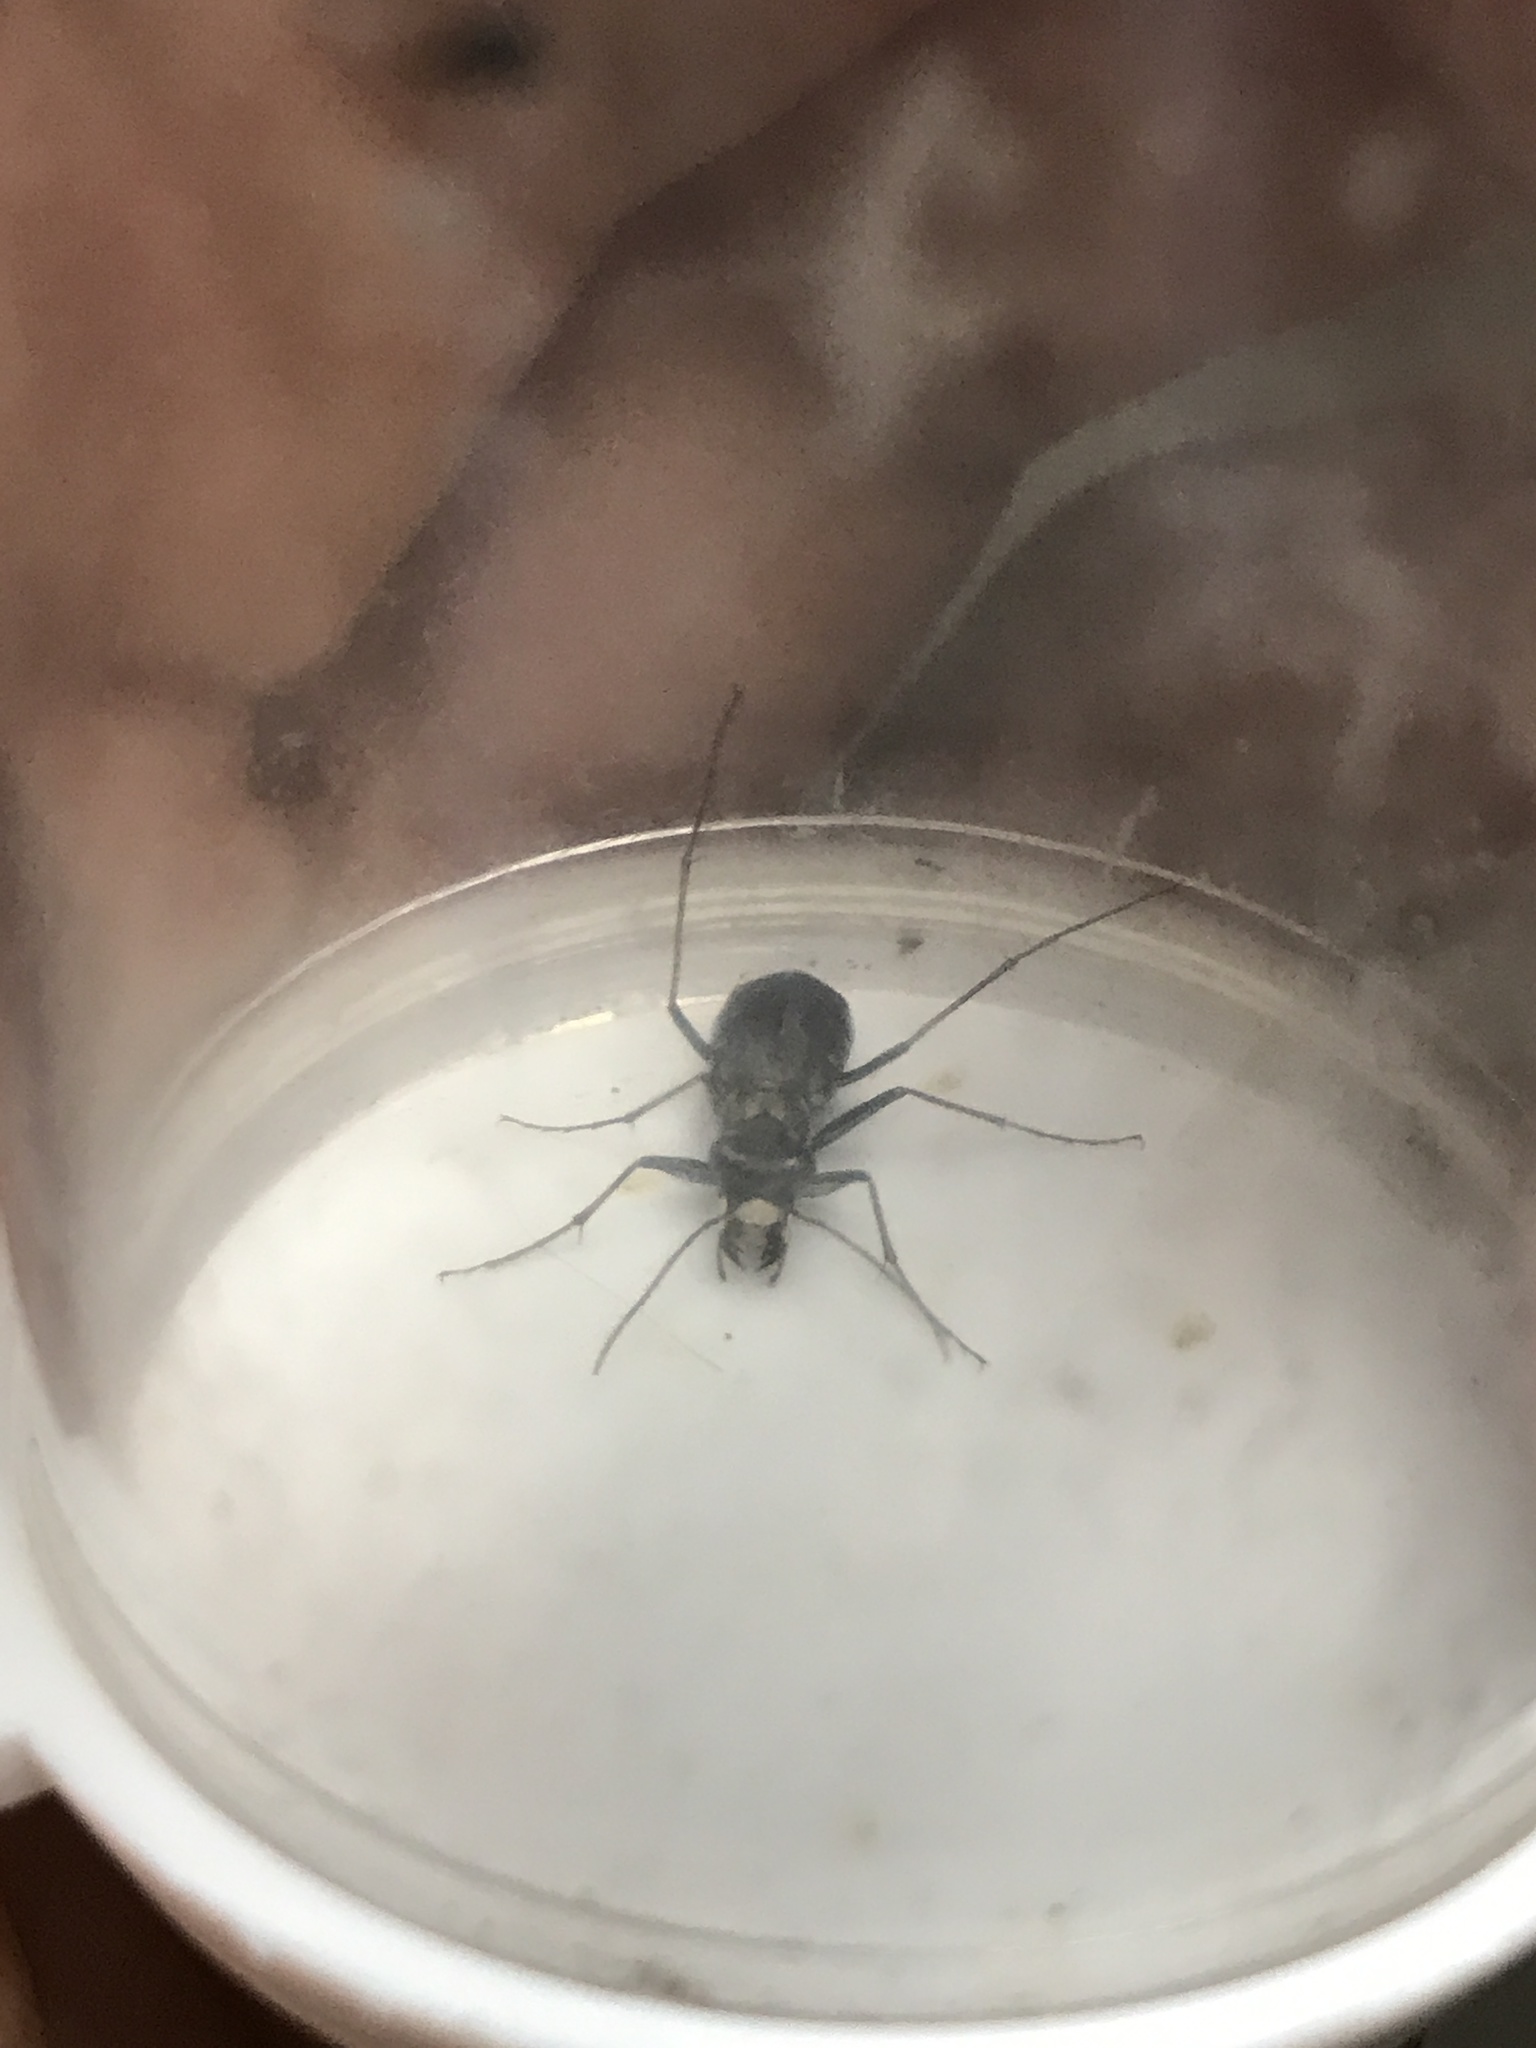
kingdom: Animalia
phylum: Arthropoda
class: Insecta
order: Coleoptera
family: Carabidae
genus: Cicindela
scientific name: Cicindela punctulata
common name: Punctured tiger beetle
